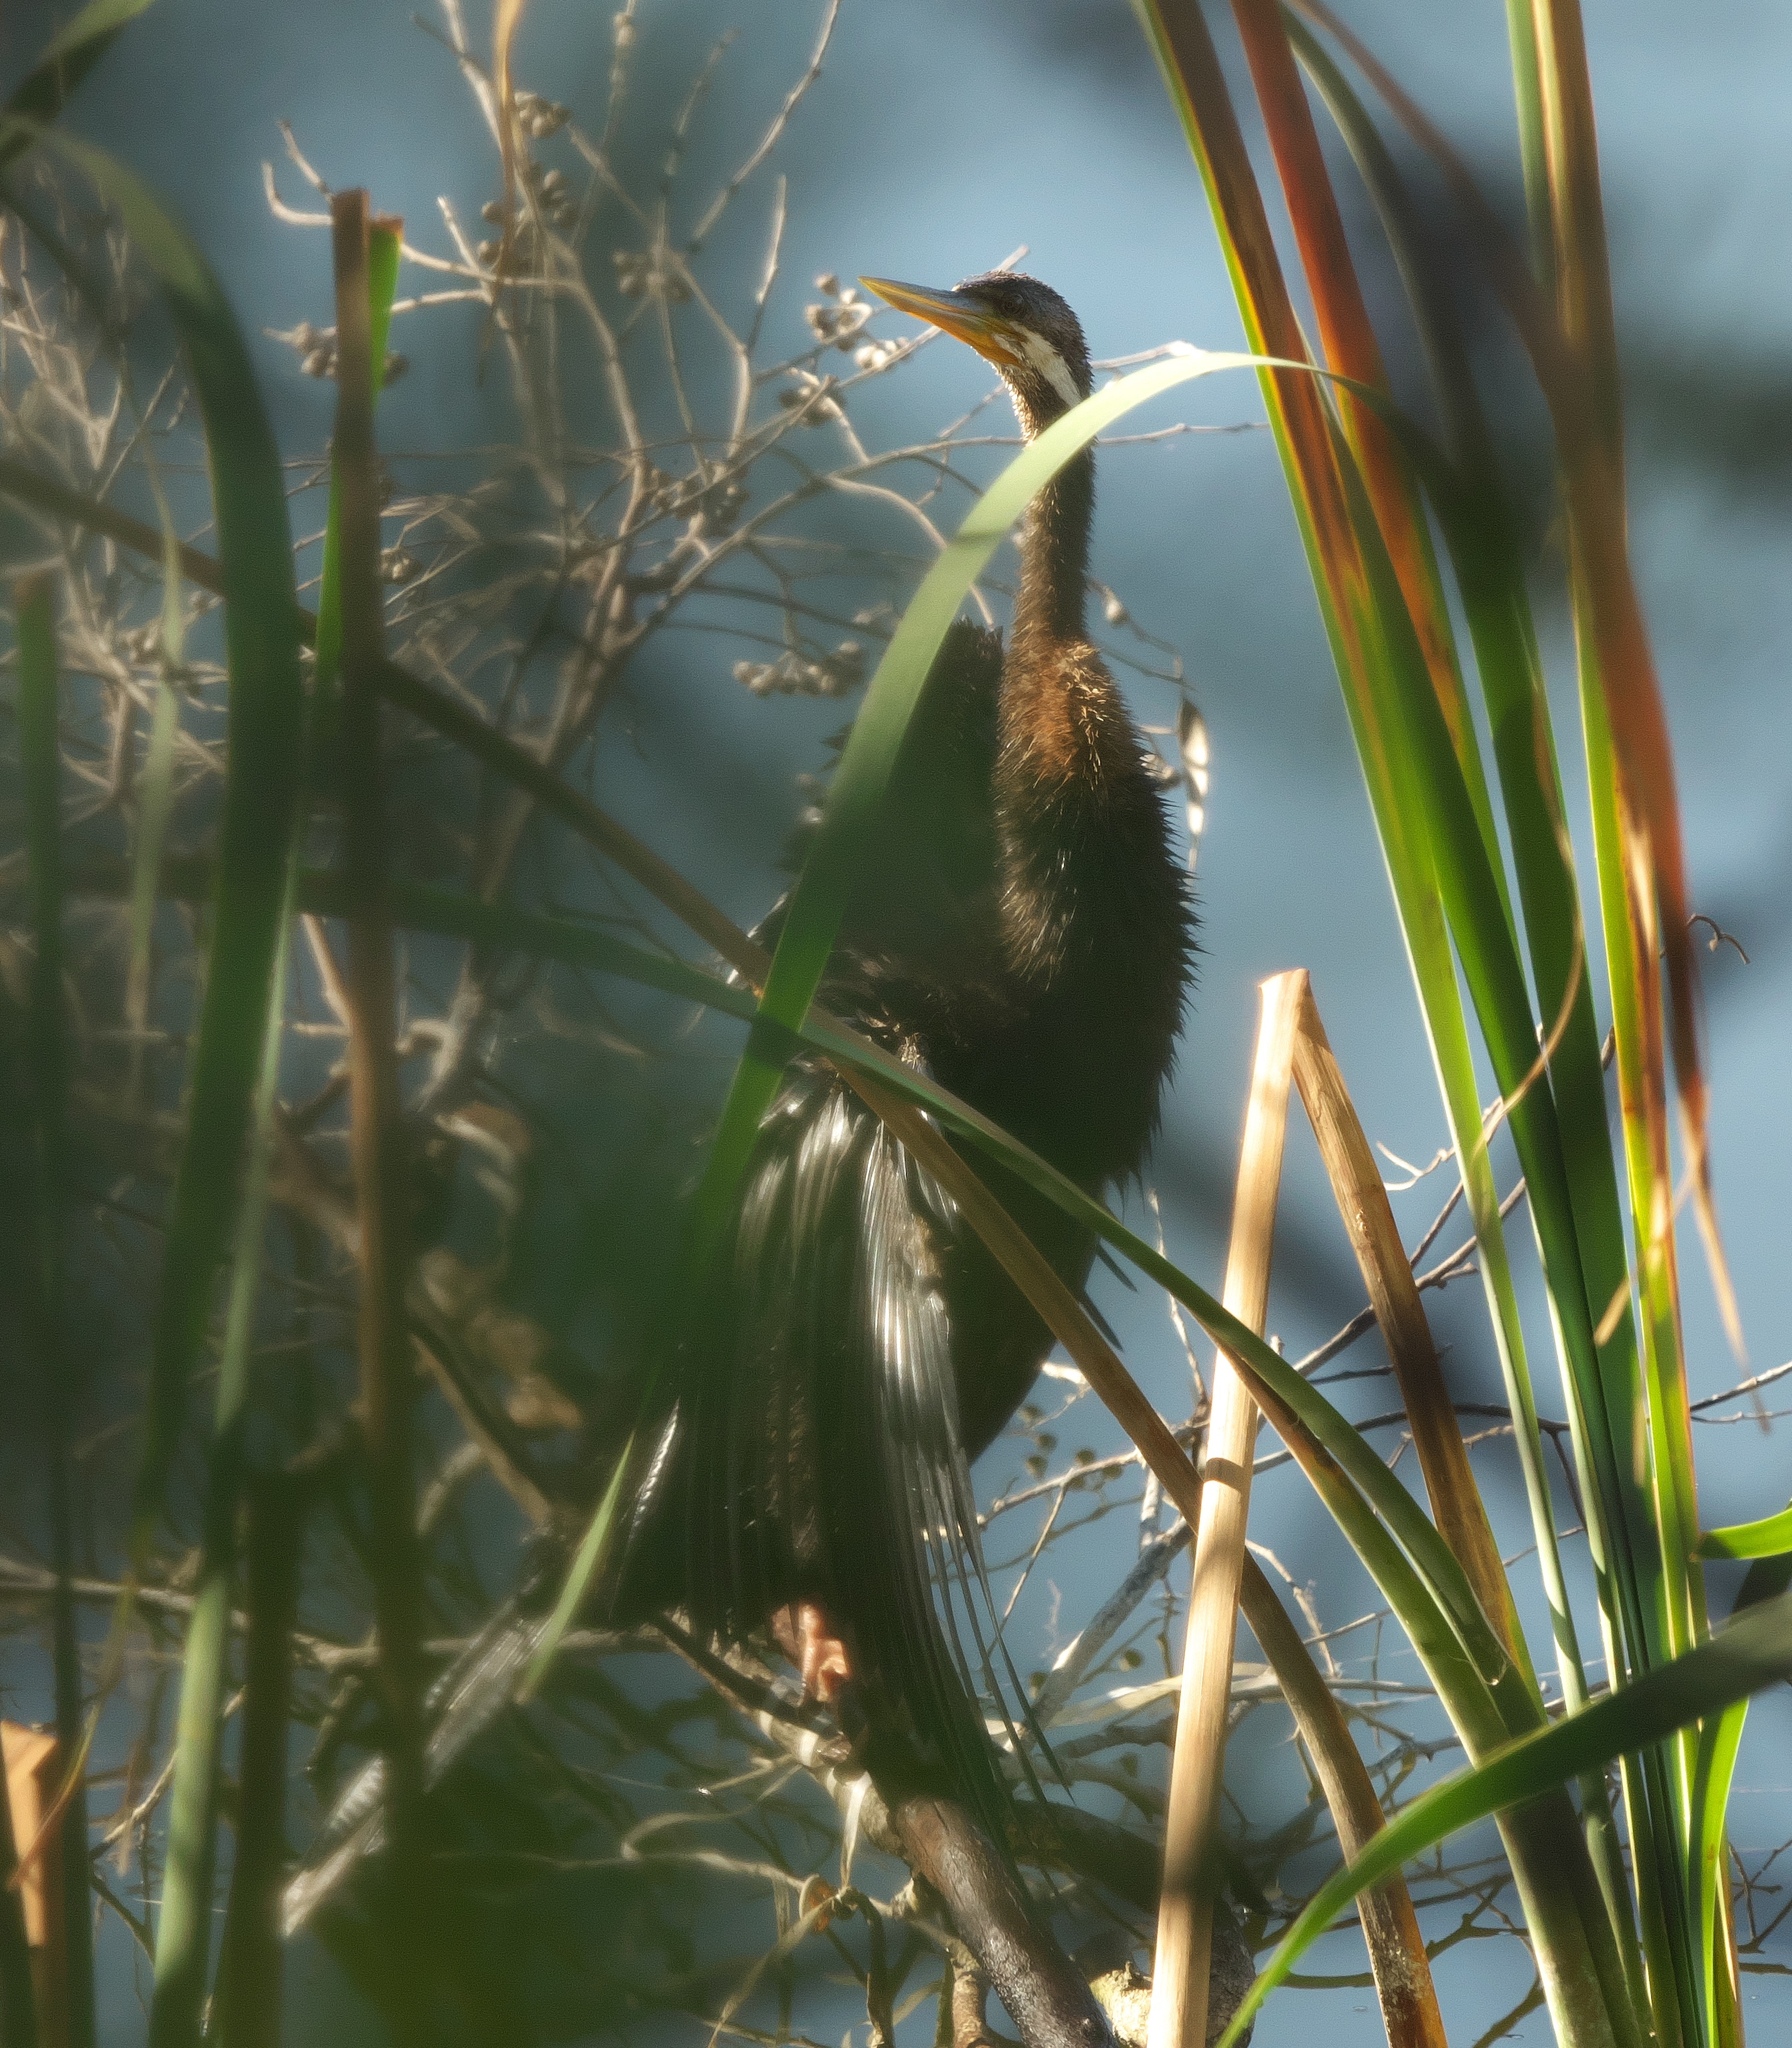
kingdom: Animalia
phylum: Chordata
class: Aves
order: Suliformes
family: Anhingidae
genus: Anhinga
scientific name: Anhinga novaehollandiae
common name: Australasian darter
